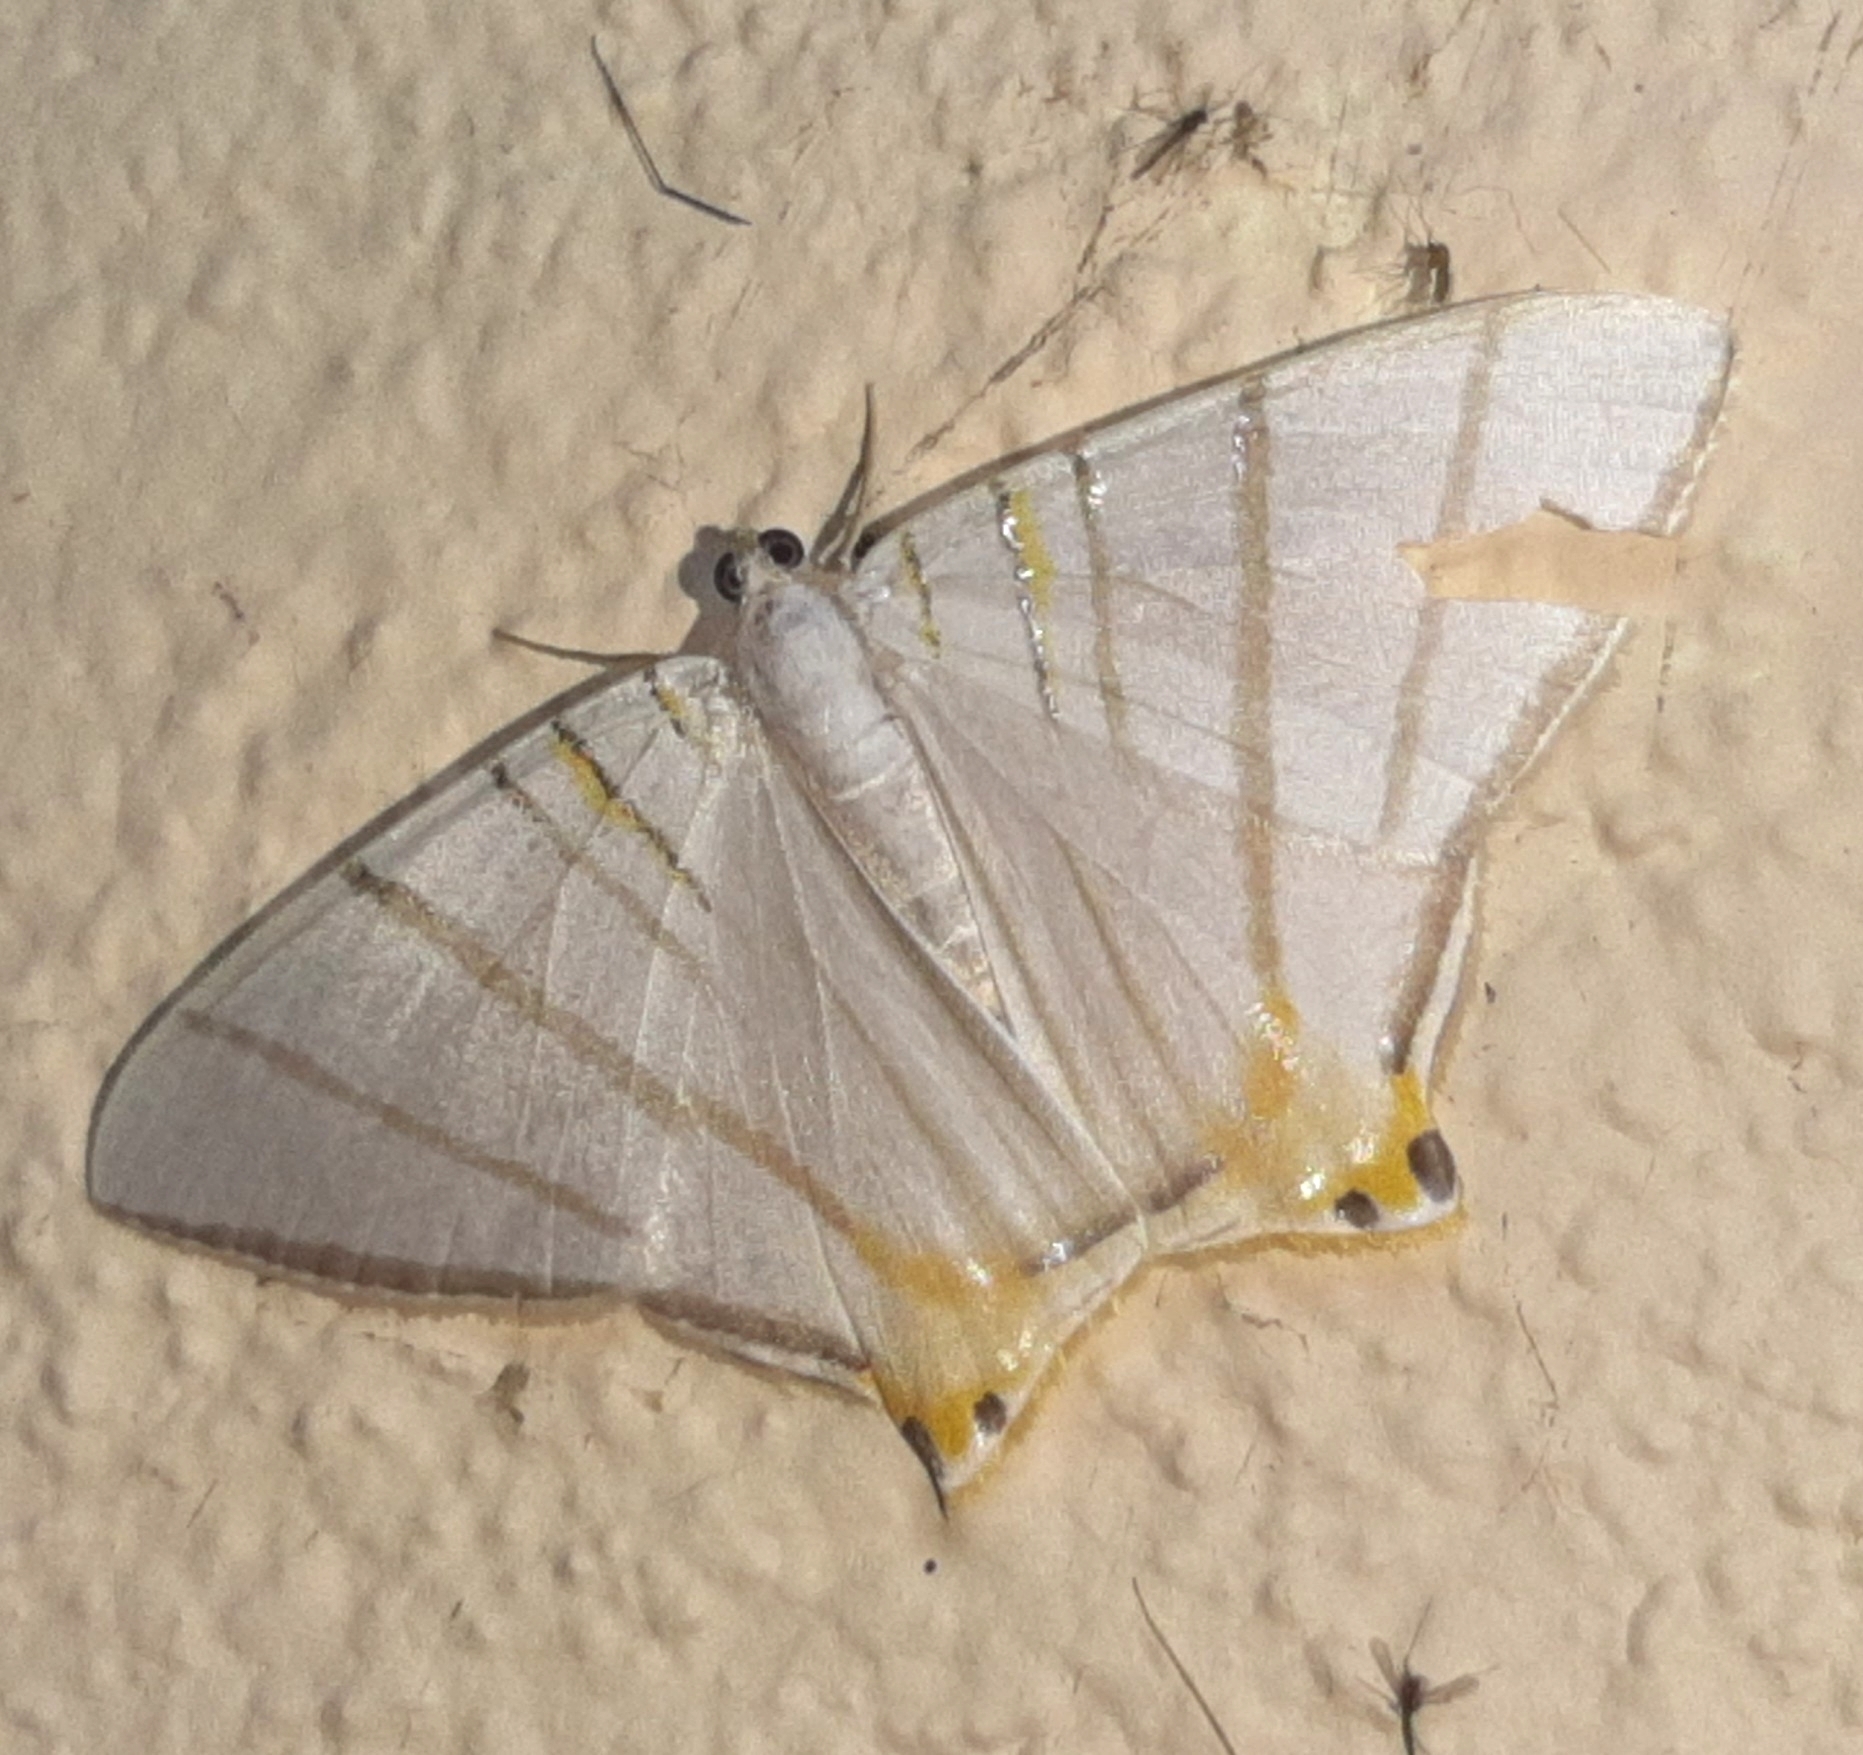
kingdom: Animalia
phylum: Arthropoda
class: Insecta
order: Lepidoptera
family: Geometridae
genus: Phrygionis
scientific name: Phrygionis platinata
